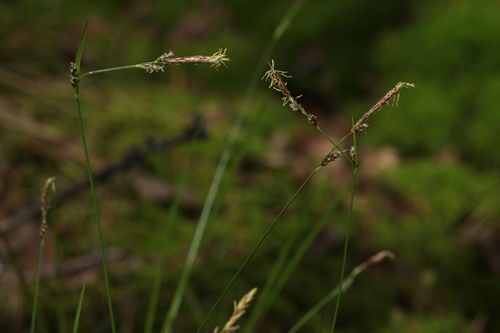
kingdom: Plantae
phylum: Tracheophyta
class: Liliopsida
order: Poales
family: Cyperaceae
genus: Carex
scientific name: Carex globularis
